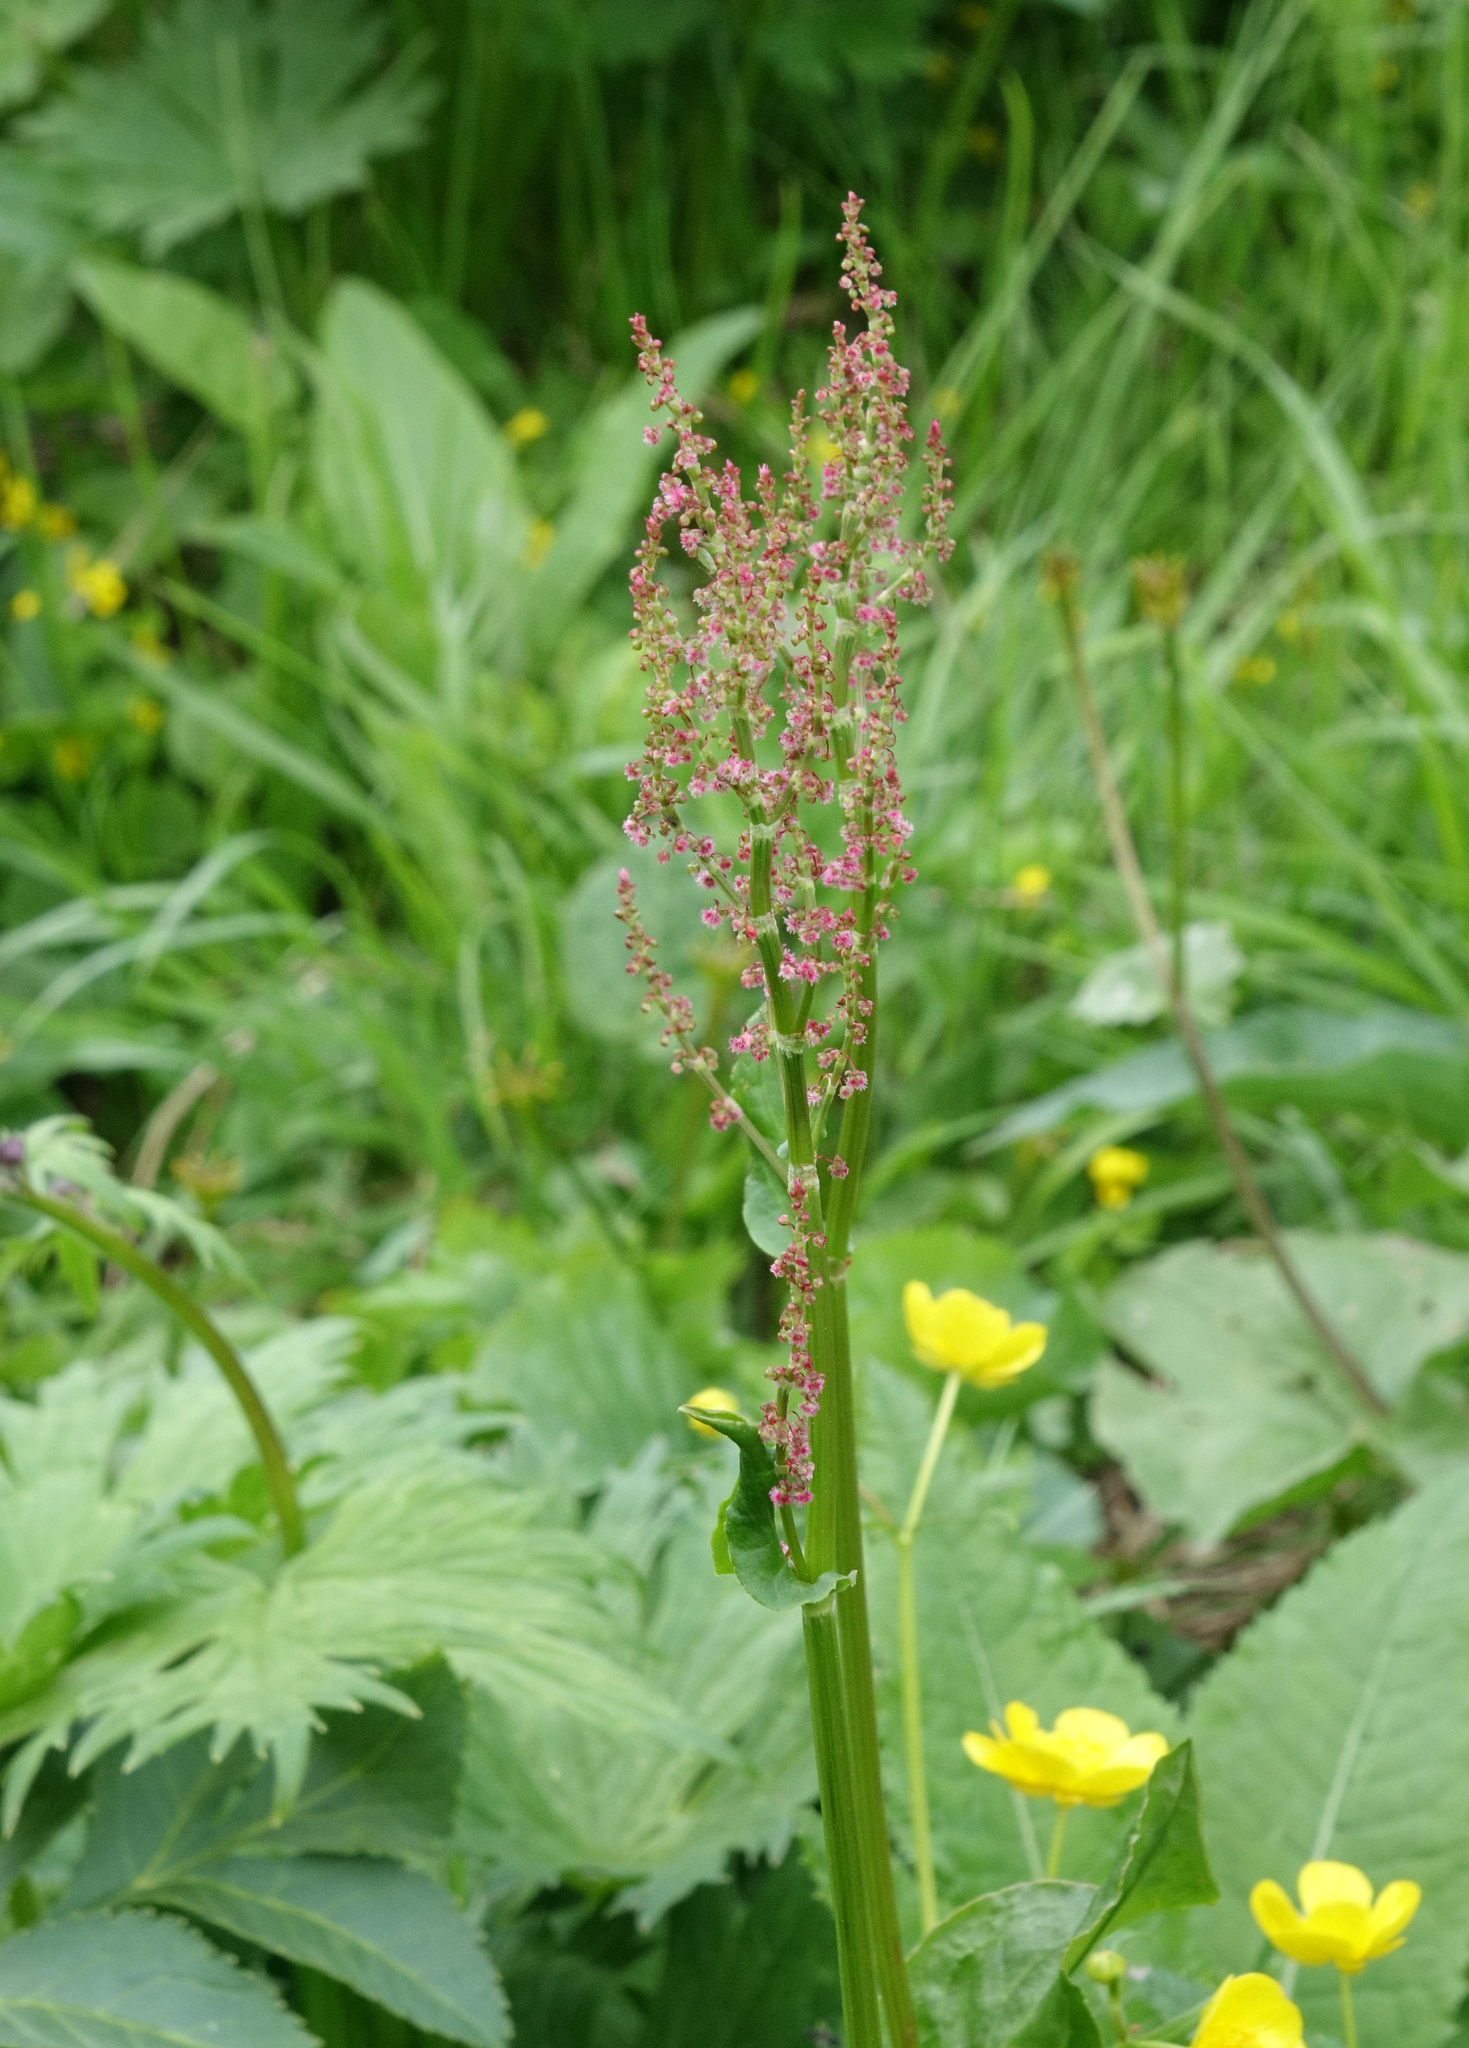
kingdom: Plantae
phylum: Tracheophyta
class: Magnoliopsida
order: Caryophyllales
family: Polygonaceae
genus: Rumex
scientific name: Rumex acetosa
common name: Garden sorrel
